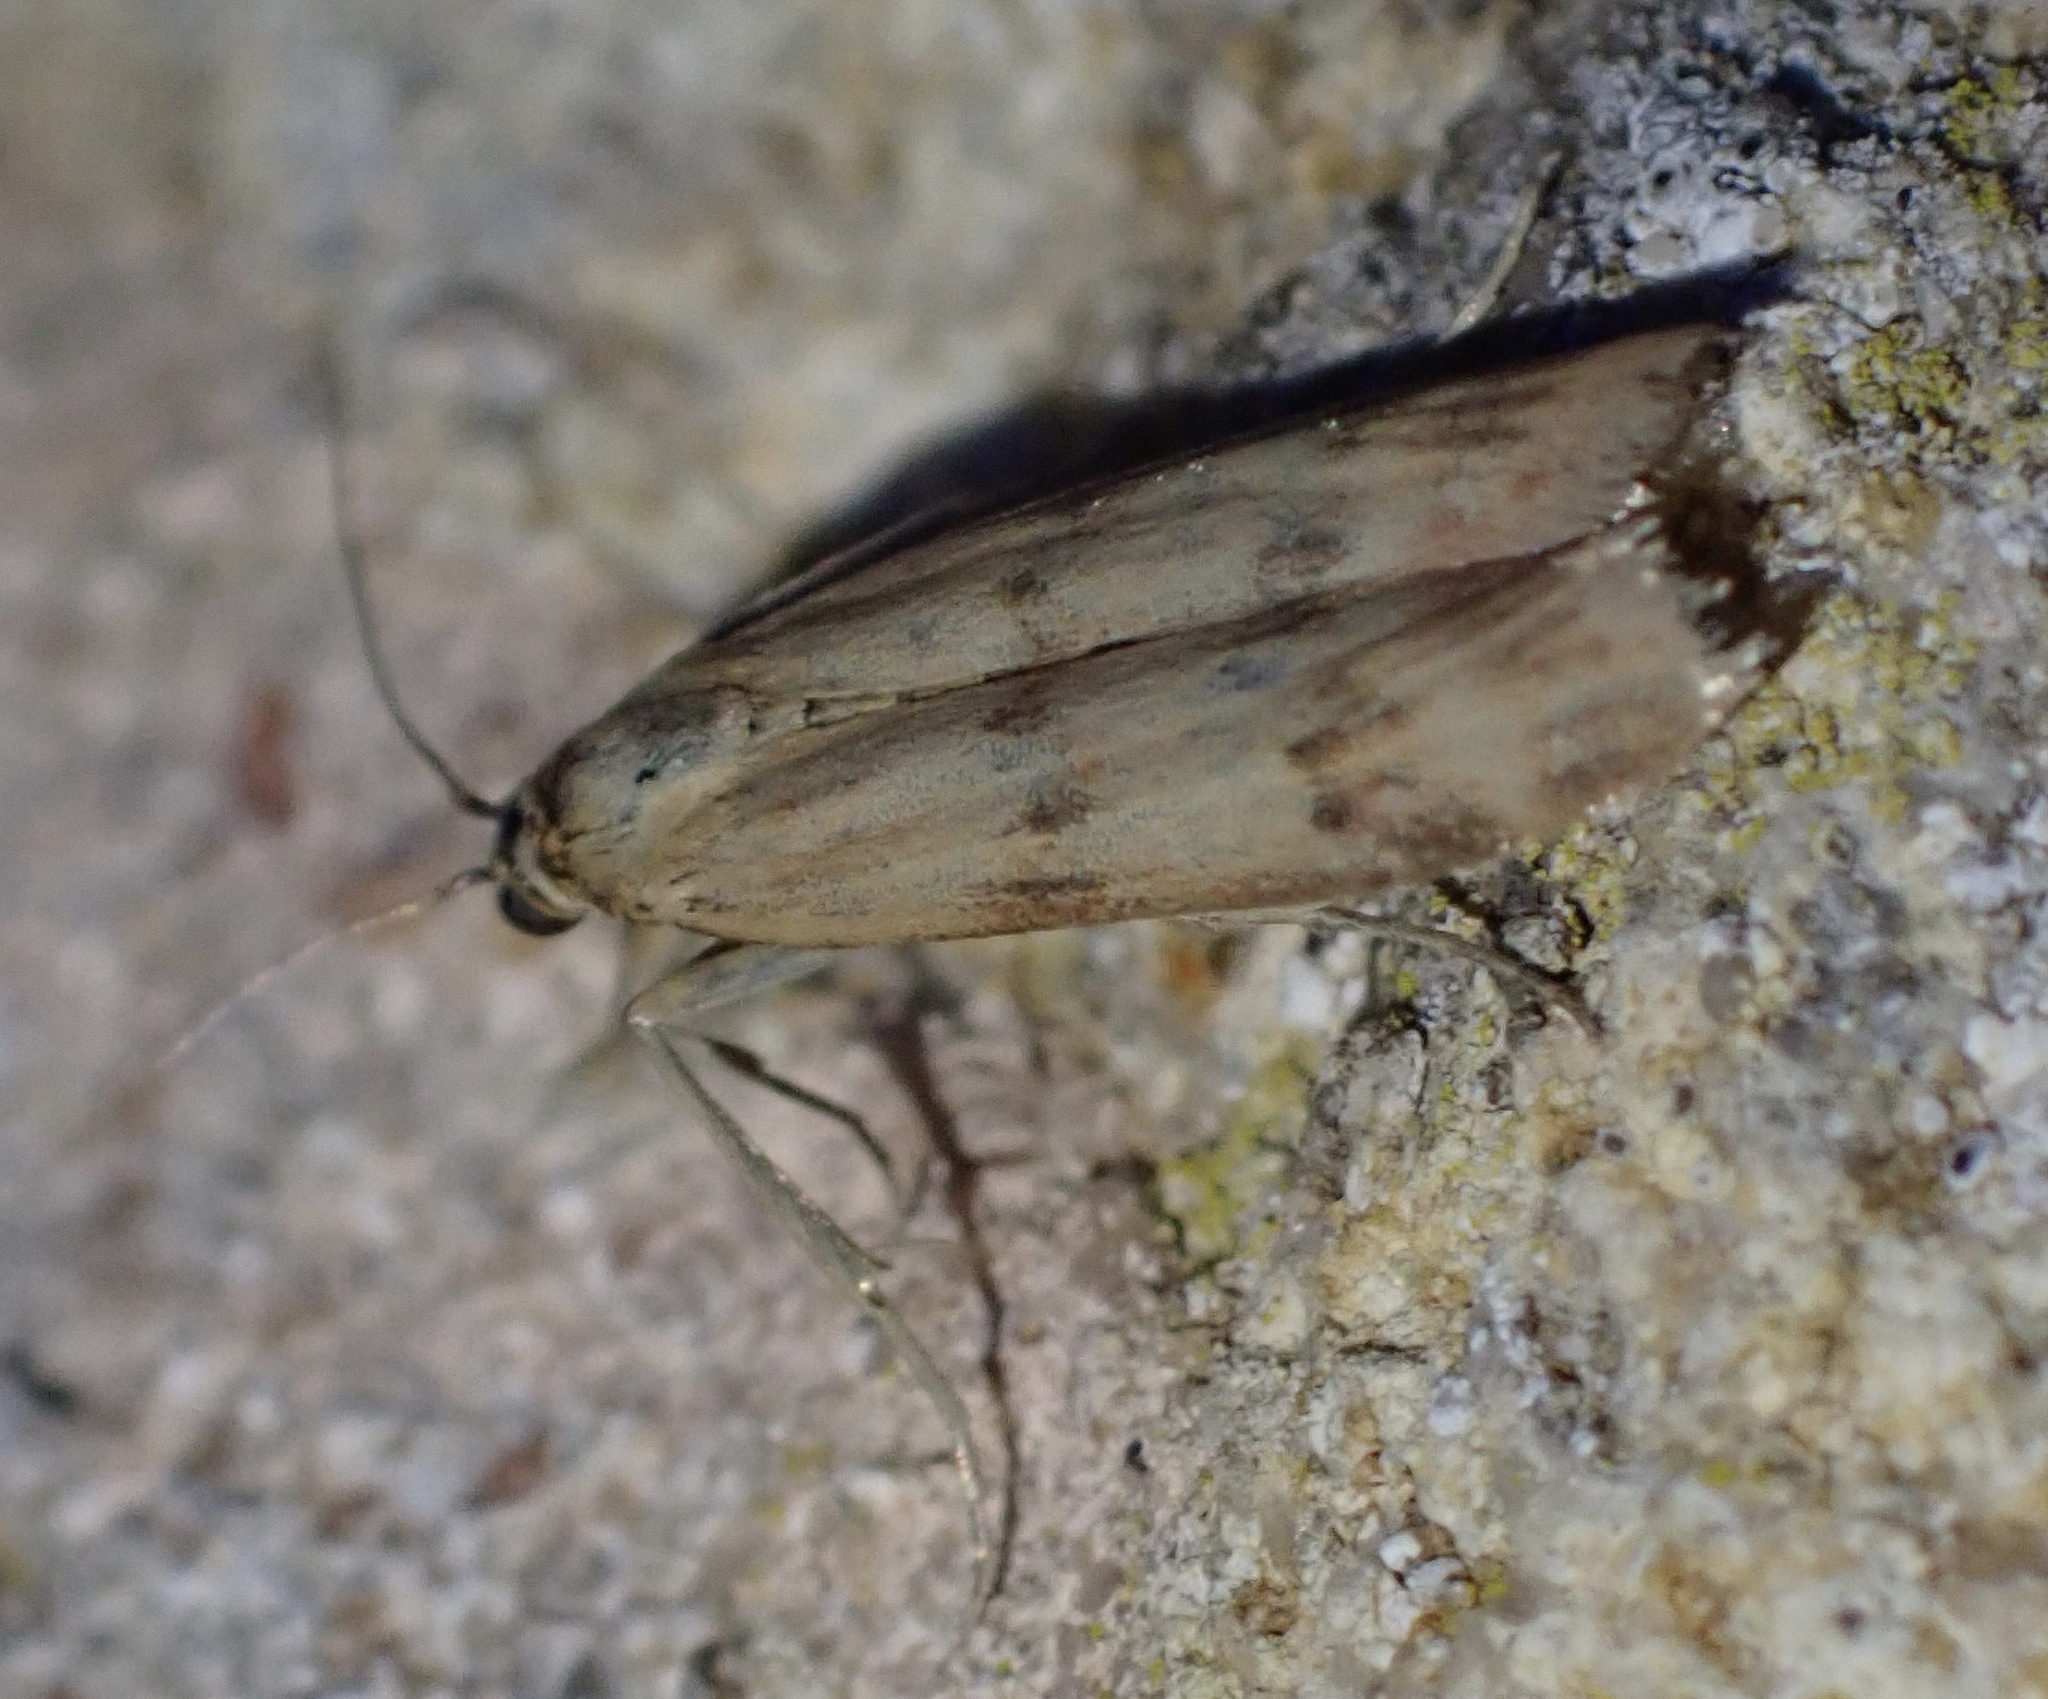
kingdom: Animalia
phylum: Arthropoda
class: Insecta
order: Lepidoptera
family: Pyralidae
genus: Homoeosoma
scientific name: Homoeosoma sinuella
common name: Twin-barred knot-horn
